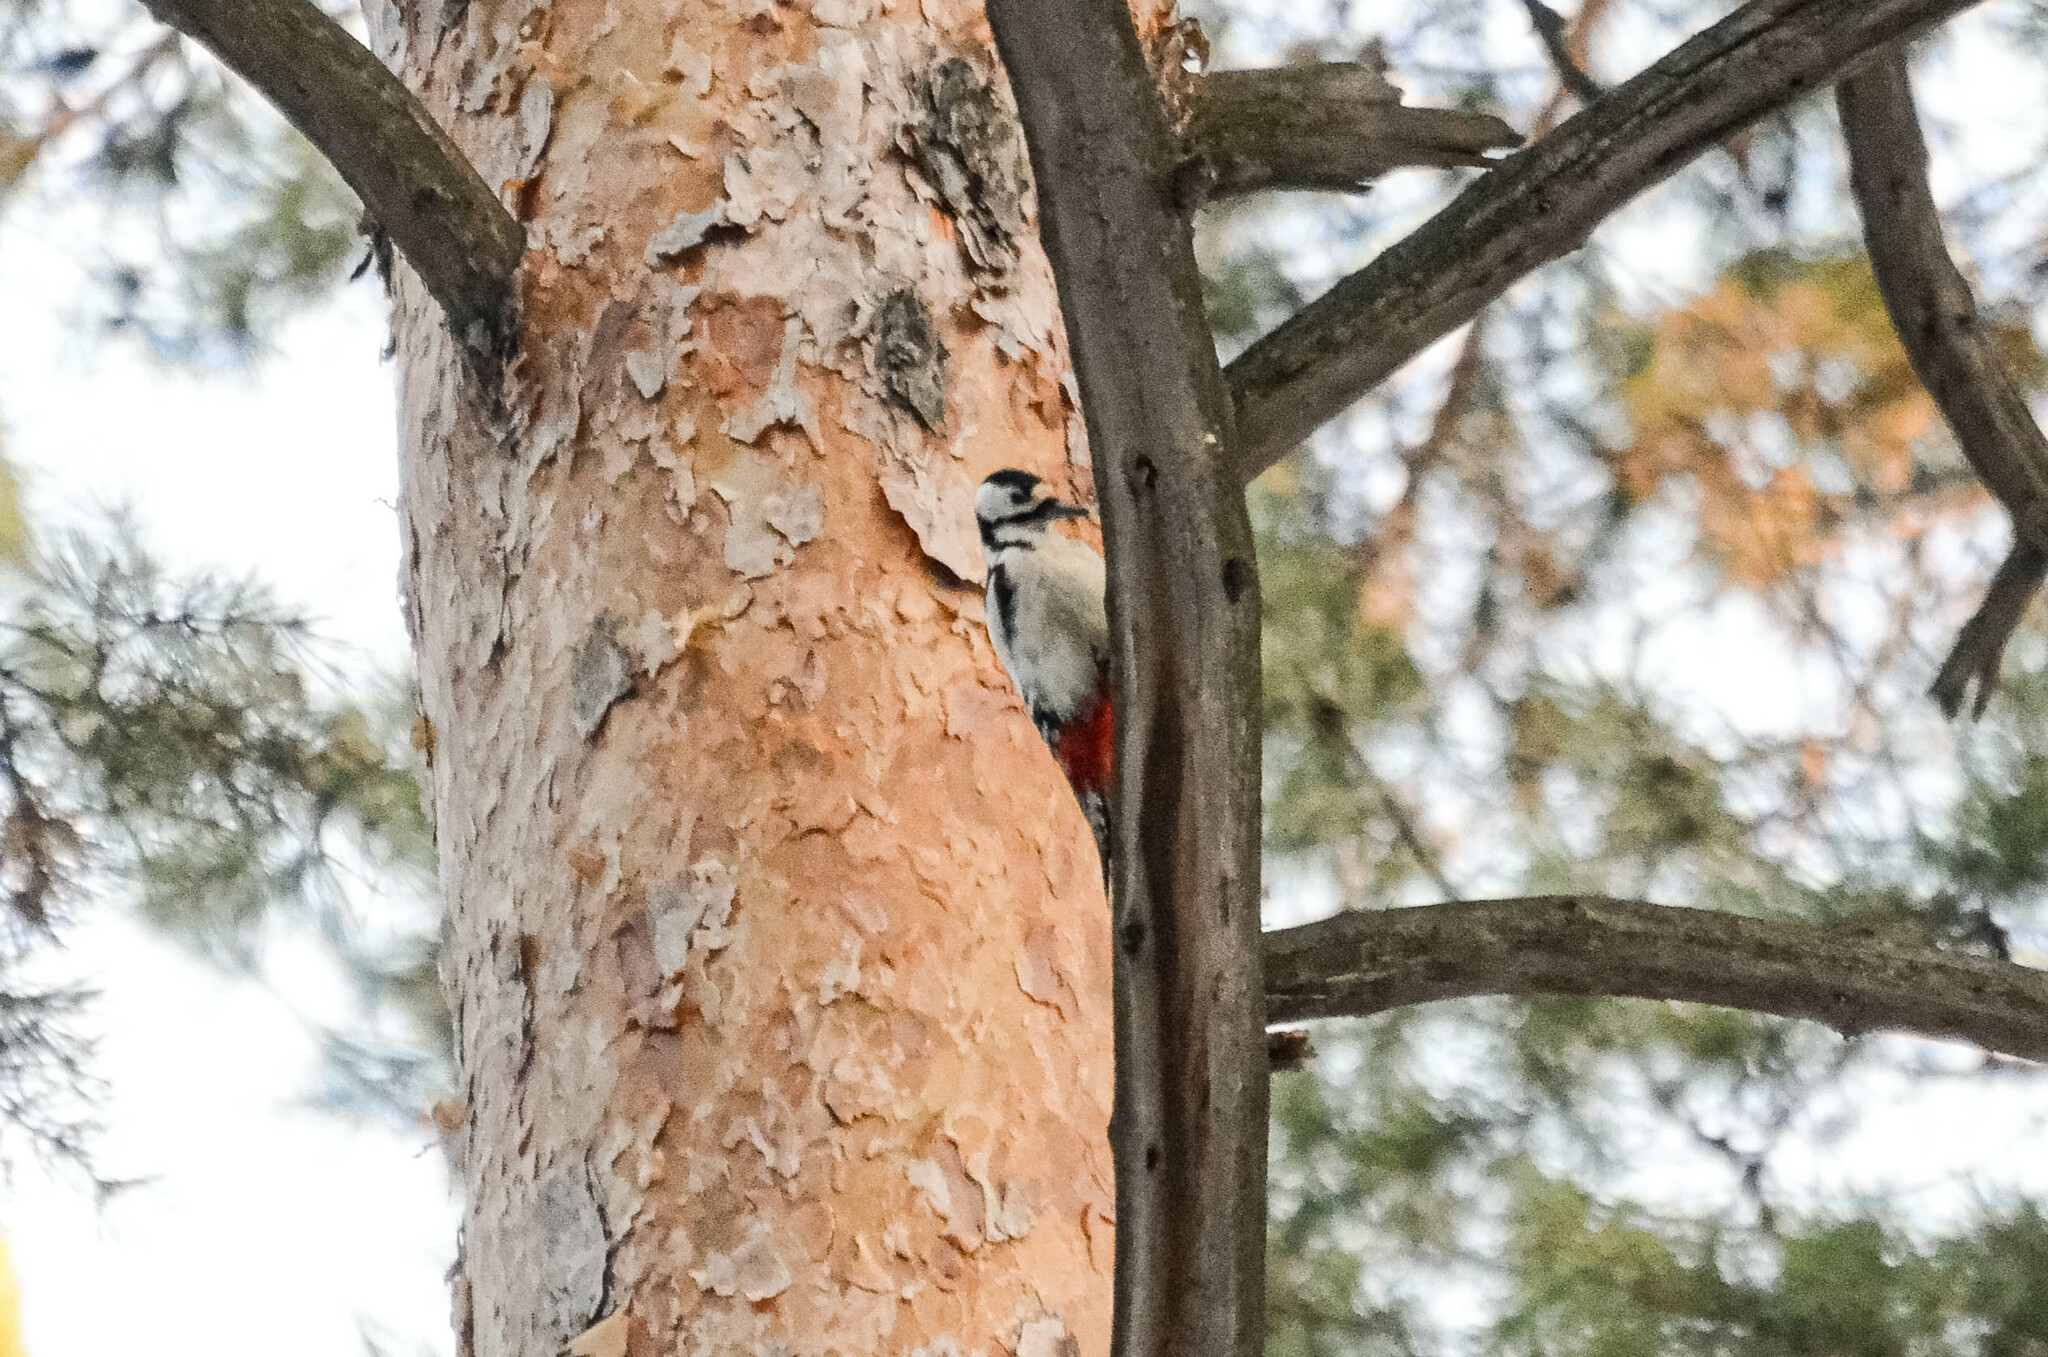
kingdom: Animalia
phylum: Chordata
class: Aves
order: Piciformes
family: Picidae
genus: Dendrocopos
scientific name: Dendrocopos major
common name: Great spotted woodpecker
